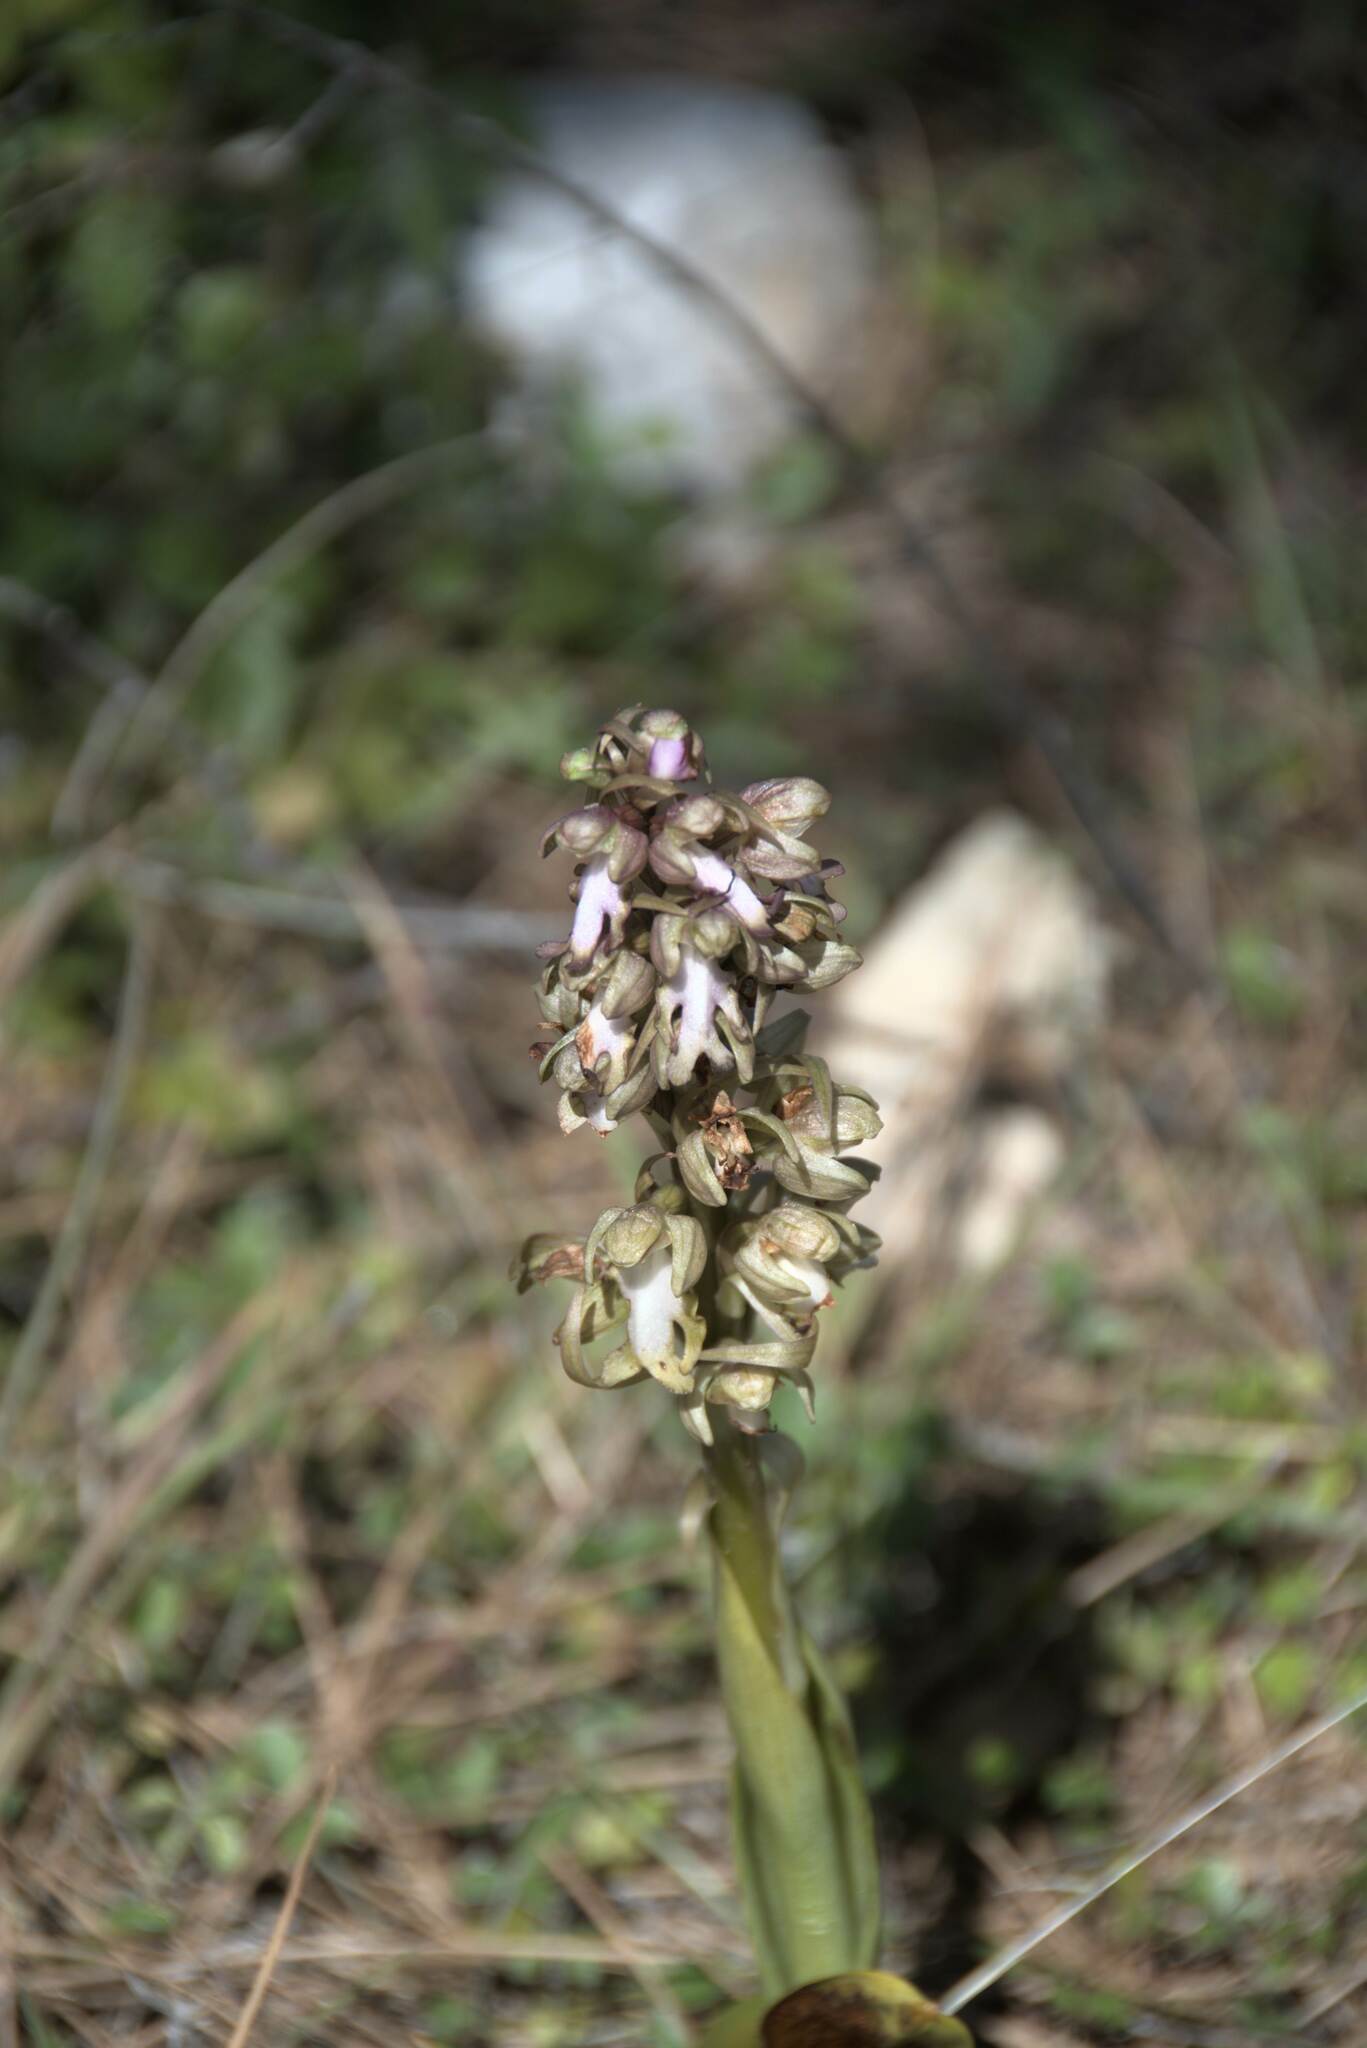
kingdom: Plantae
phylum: Tracheophyta
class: Liliopsida
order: Asparagales
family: Orchidaceae
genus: Himantoglossum
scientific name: Himantoglossum robertianum
